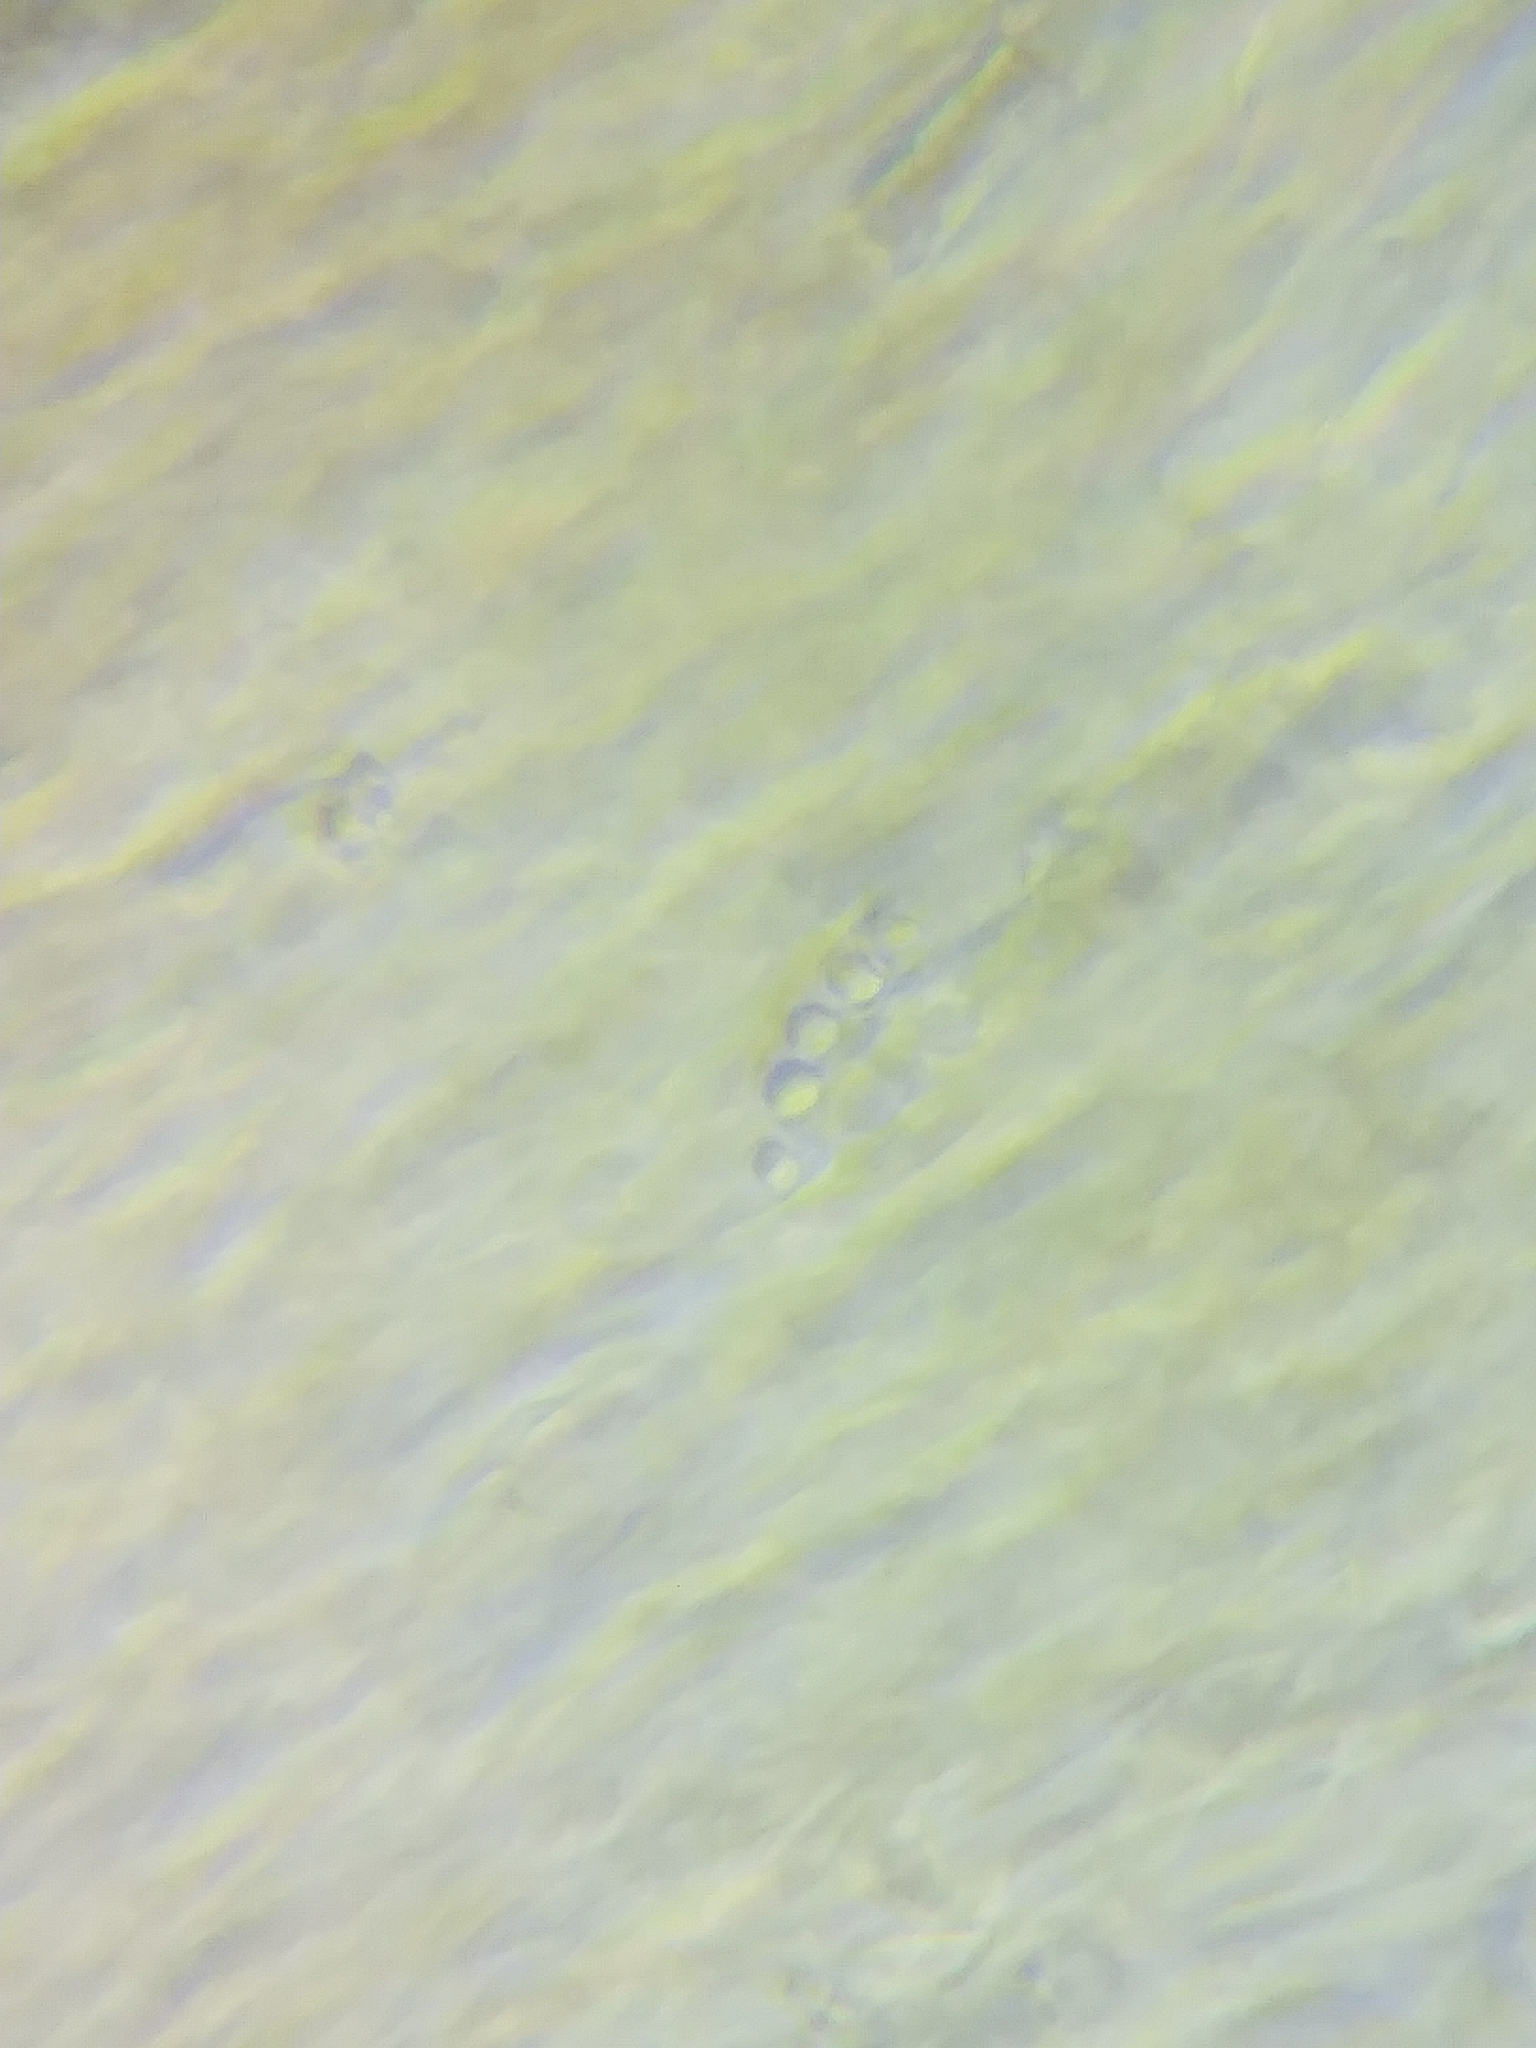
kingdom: Fungi
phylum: Basidiomycota
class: Agaricomycetes
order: Polyporales
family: Polyporaceae
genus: Cerioporus
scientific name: Cerioporus varius
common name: Elegant polypore
